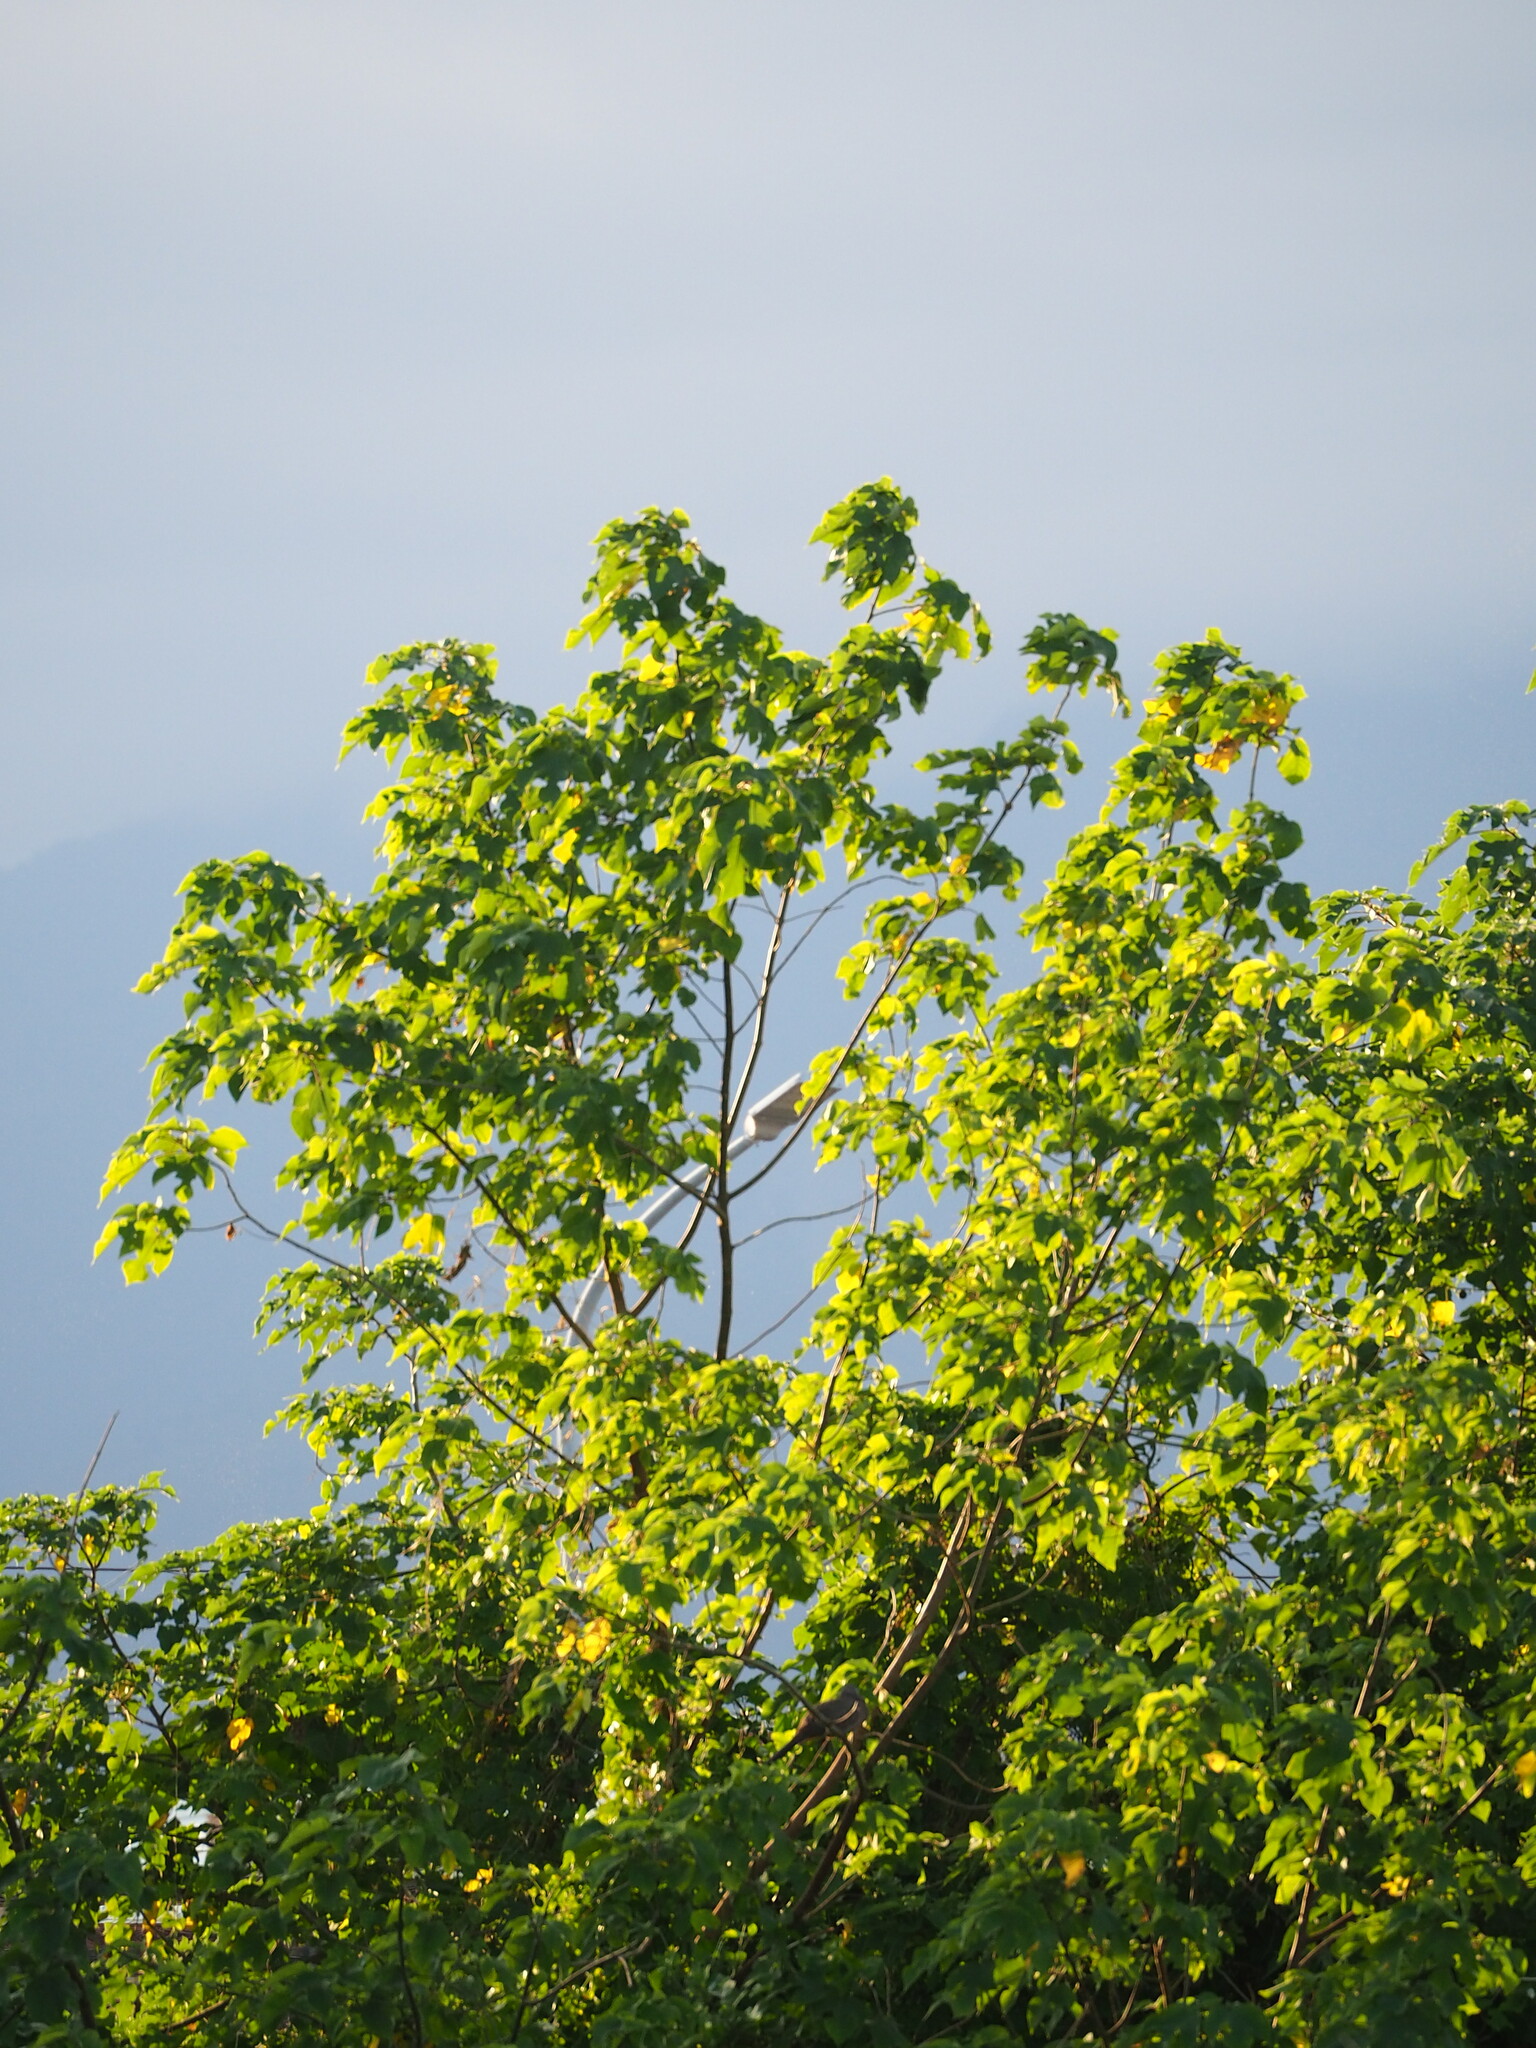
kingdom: Plantae
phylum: Tracheophyta
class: Magnoliopsida
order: Rosales
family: Moraceae
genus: Broussonetia
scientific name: Broussonetia papyrifera
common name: Paper mulberry
